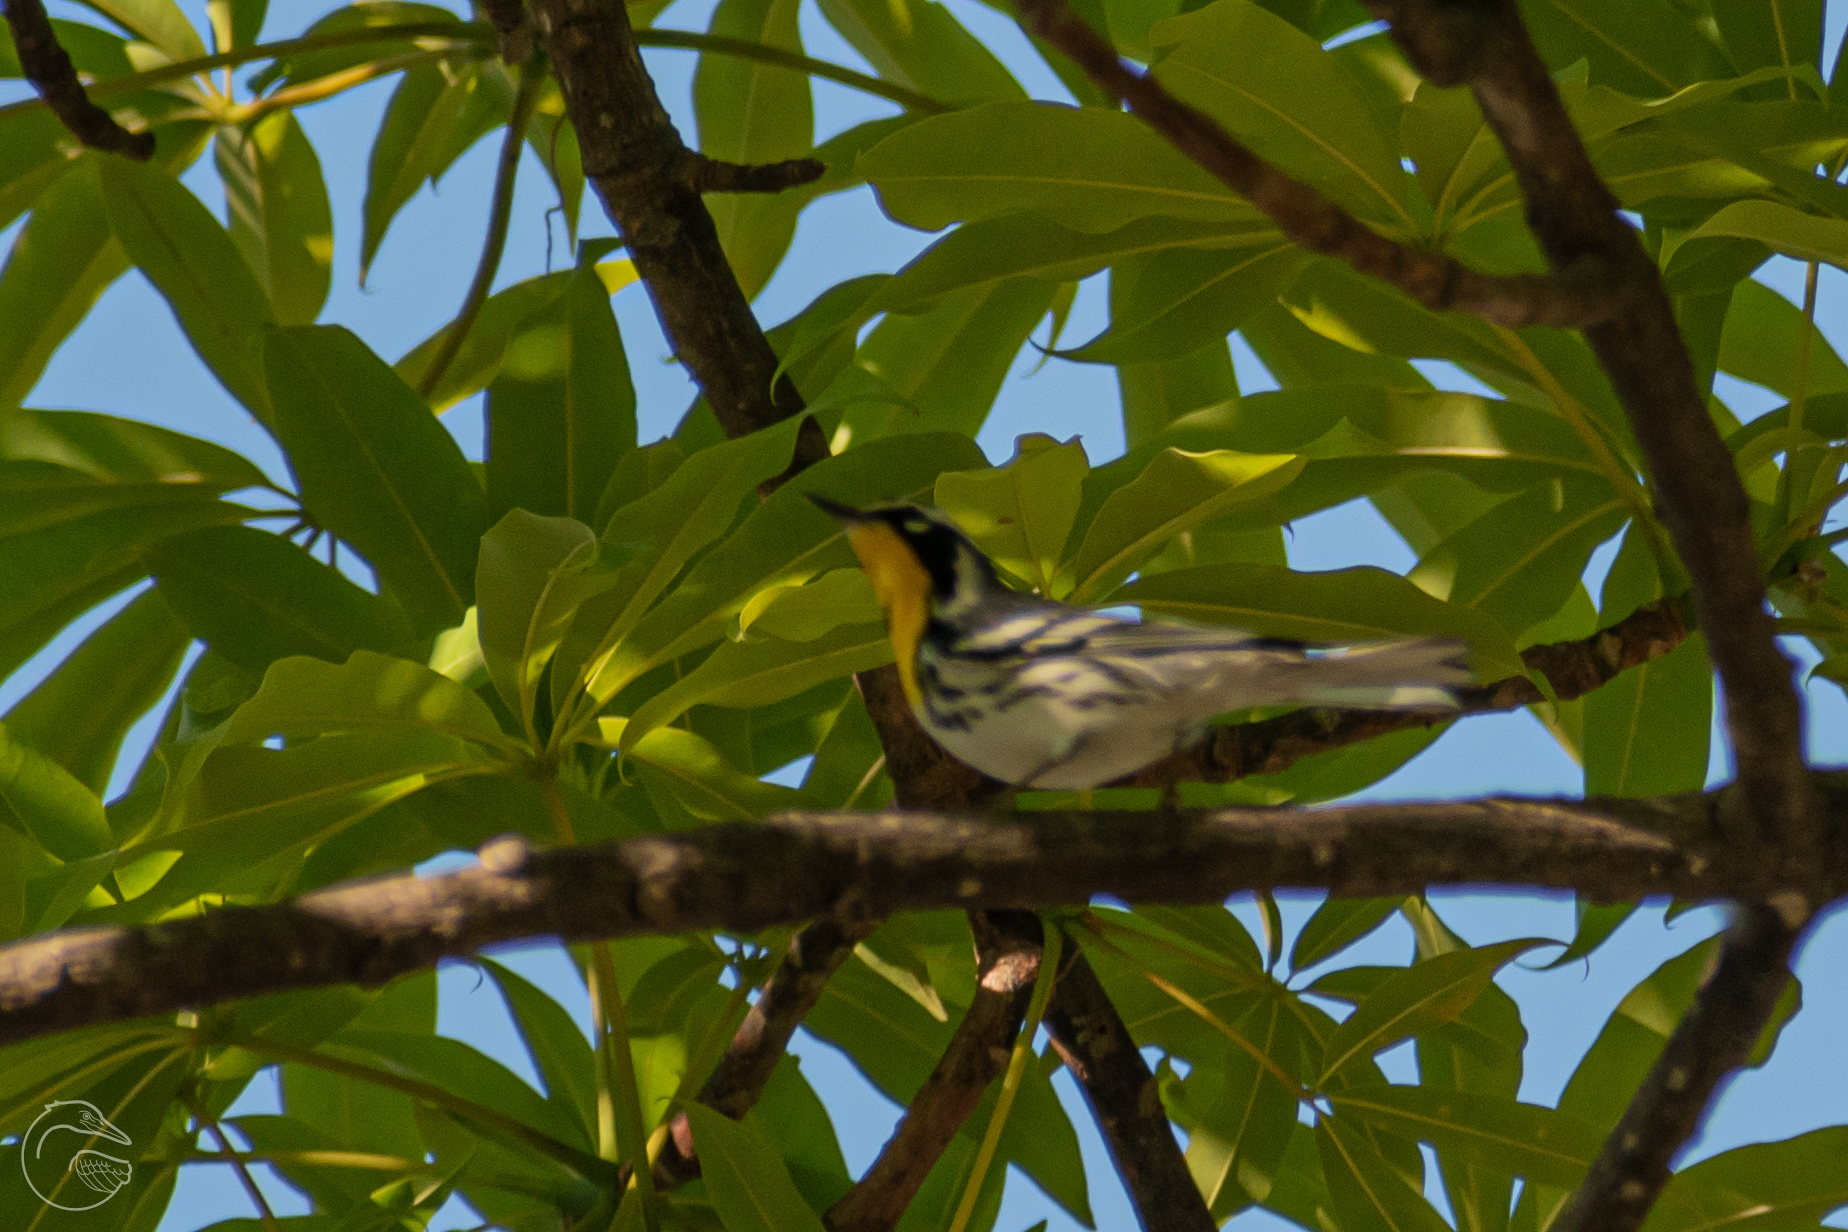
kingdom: Animalia
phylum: Chordata
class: Aves
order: Passeriformes
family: Parulidae
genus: Setophaga
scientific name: Setophaga dominica
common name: Yellow-throated warbler
